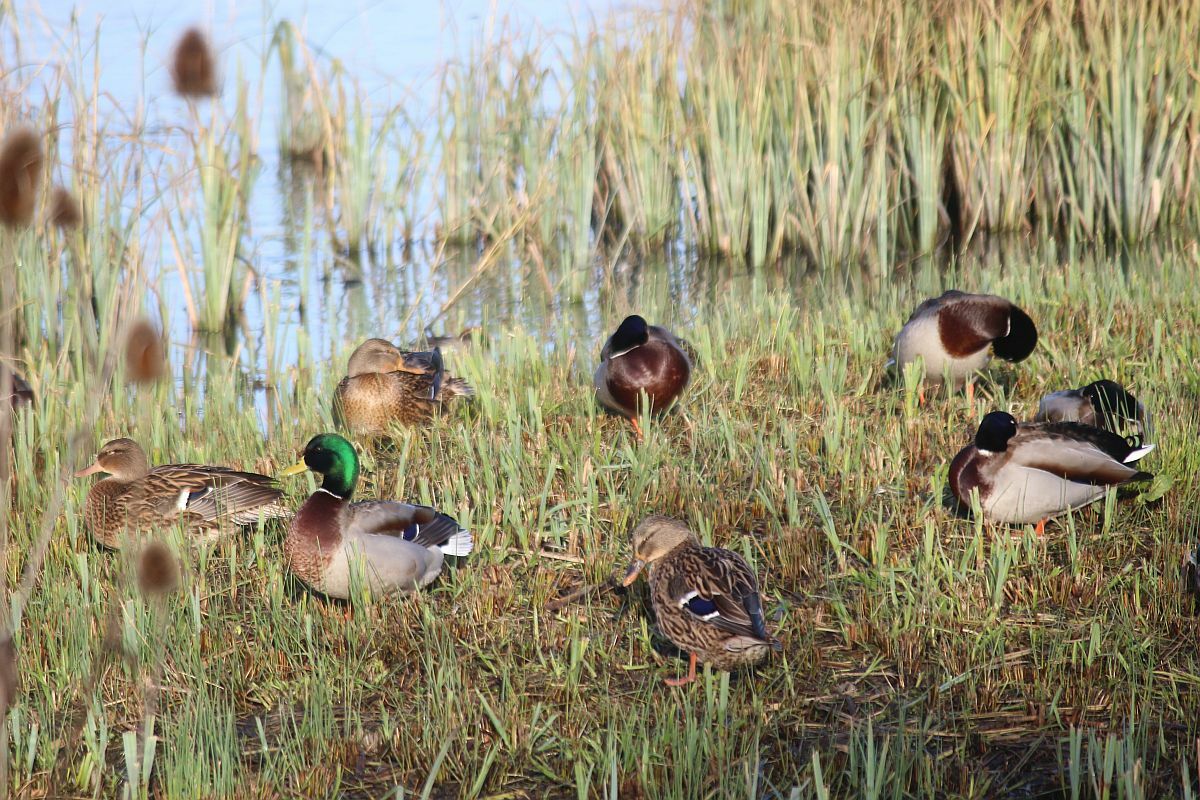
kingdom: Animalia
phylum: Chordata
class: Aves
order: Anseriformes
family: Anatidae
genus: Anas
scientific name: Anas platyrhynchos
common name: Mallard
